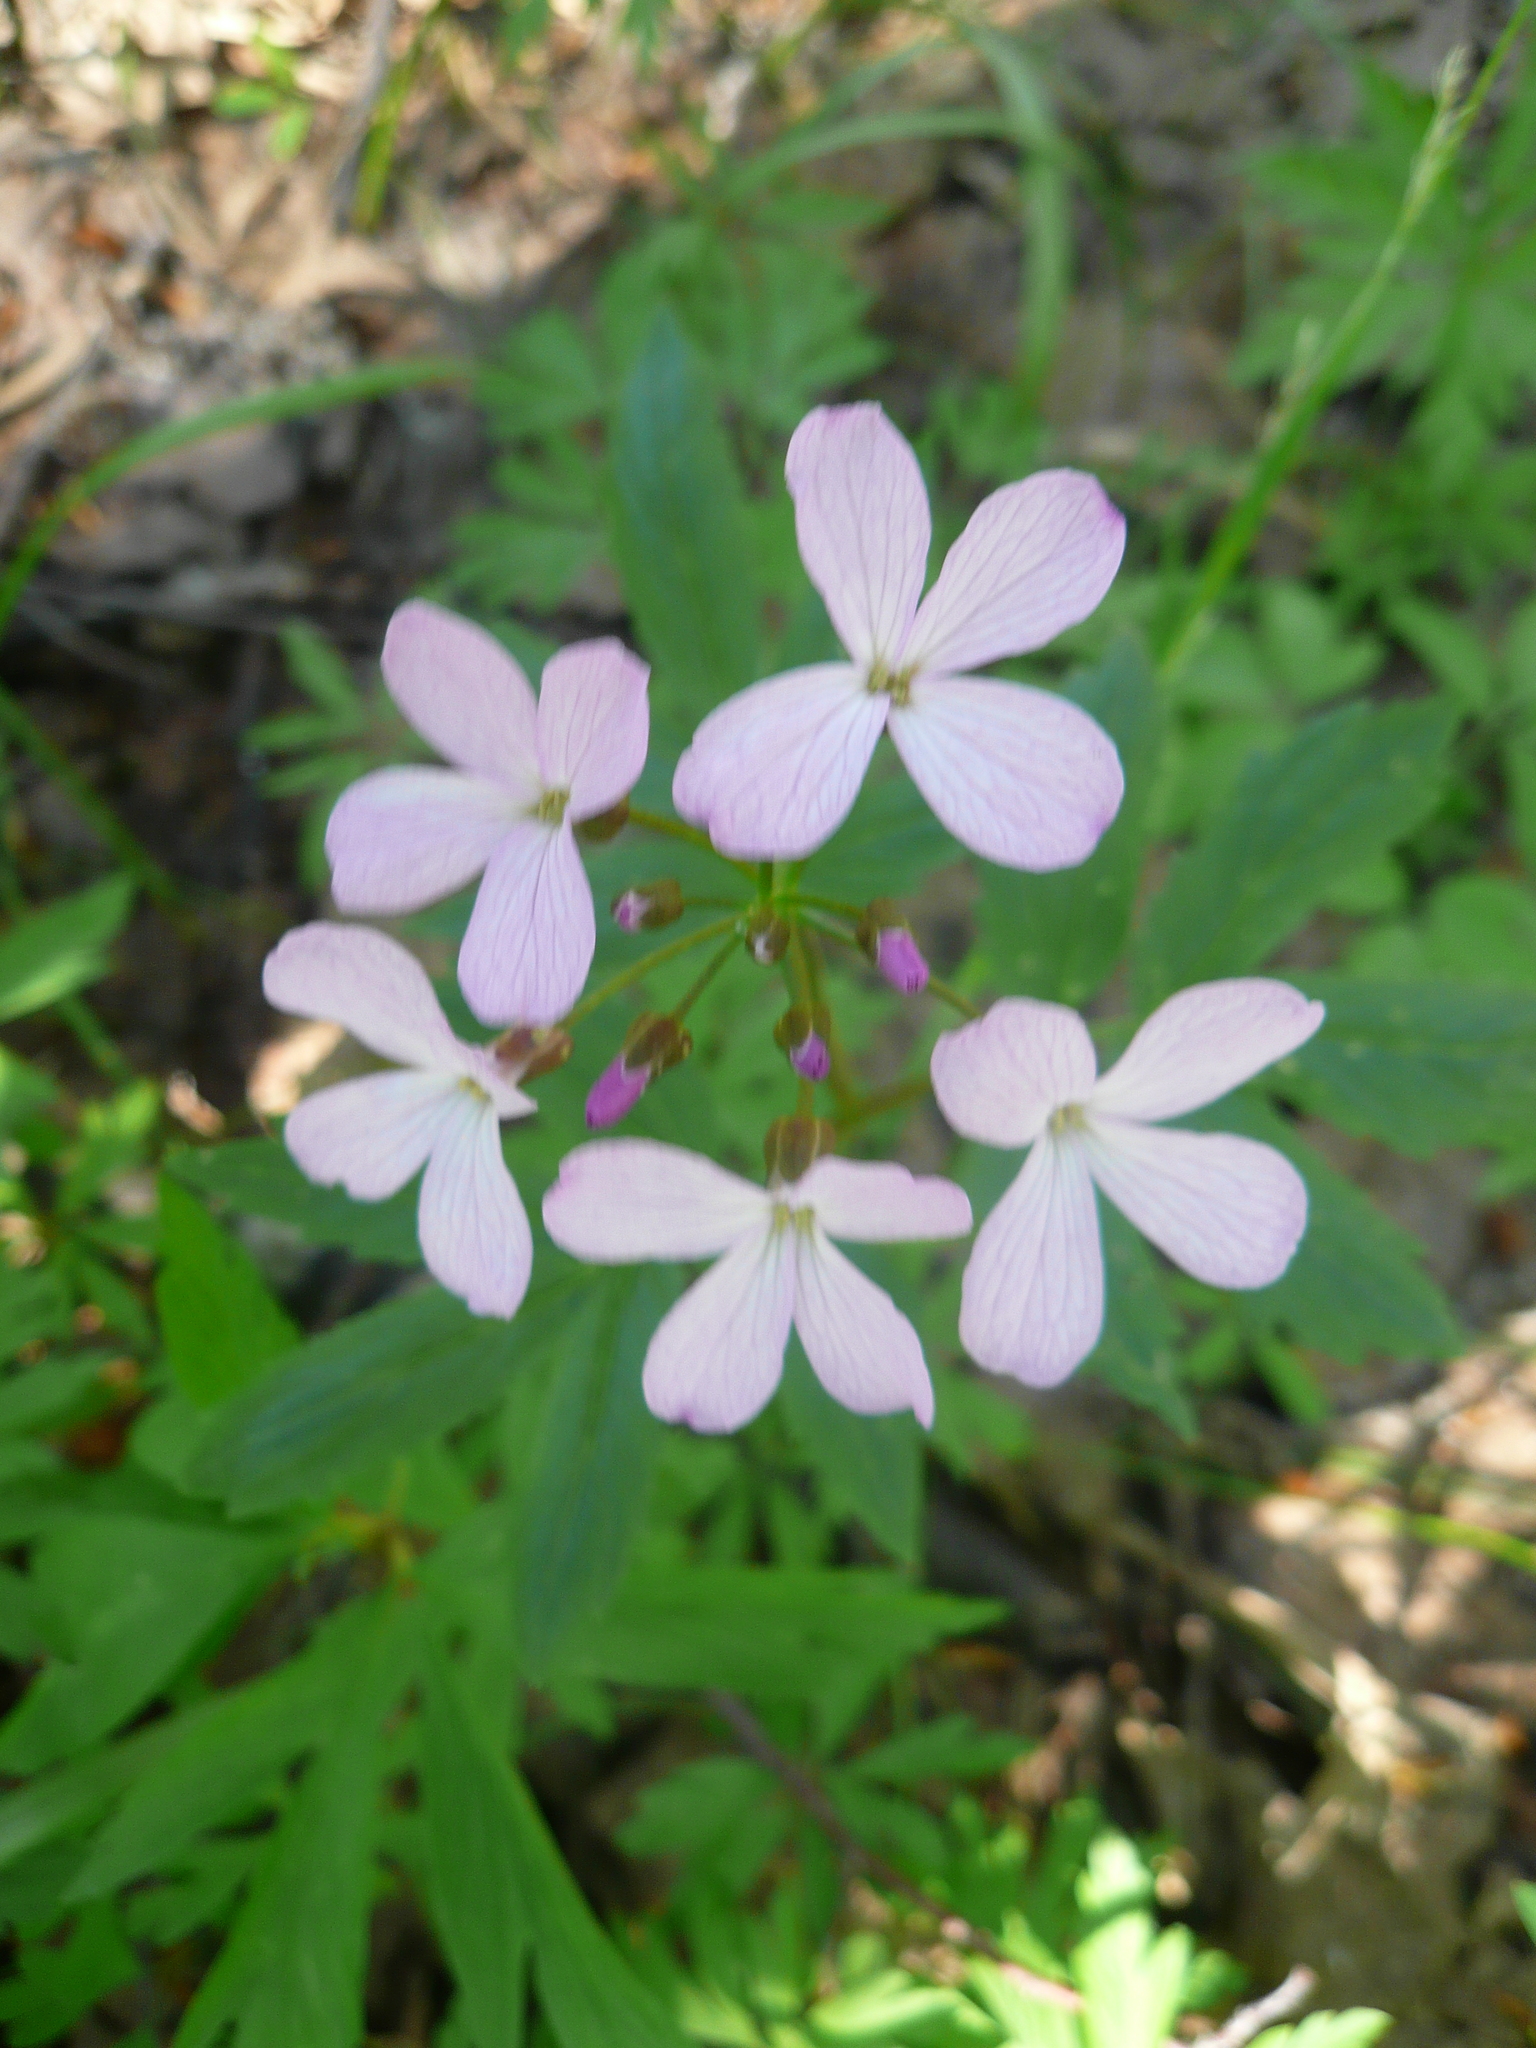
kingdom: Plantae
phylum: Tracheophyta
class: Magnoliopsida
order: Brassicales
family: Brassicaceae
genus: Cardamine
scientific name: Cardamine quinquefolia
